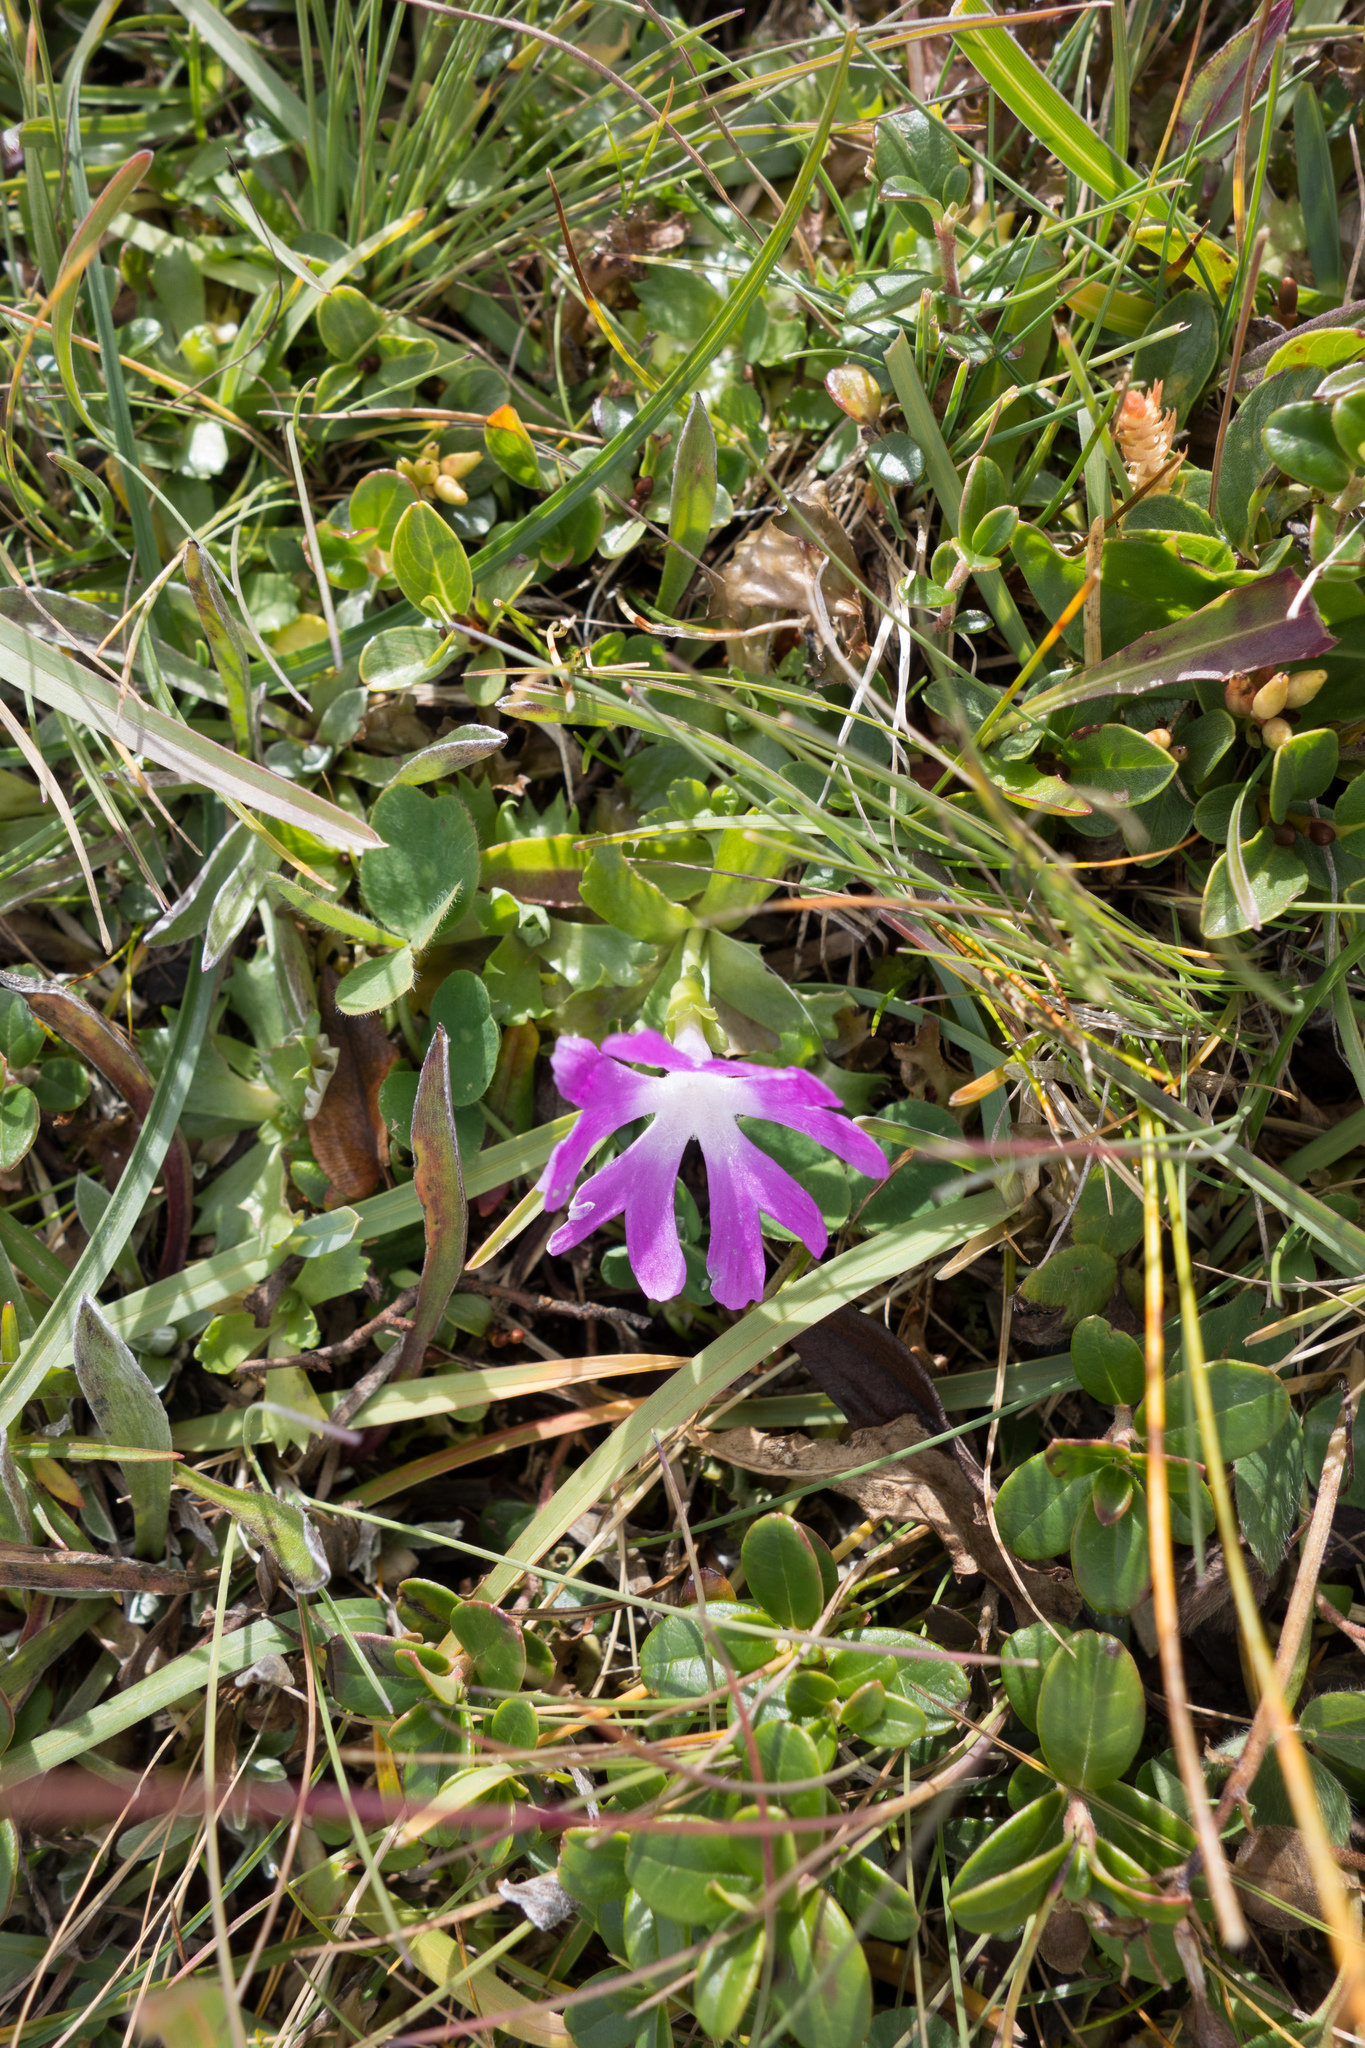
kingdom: Plantae
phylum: Tracheophyta
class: Magnoliopsida
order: Ericales
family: Primulaceae
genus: Primula
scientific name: Primula minima
